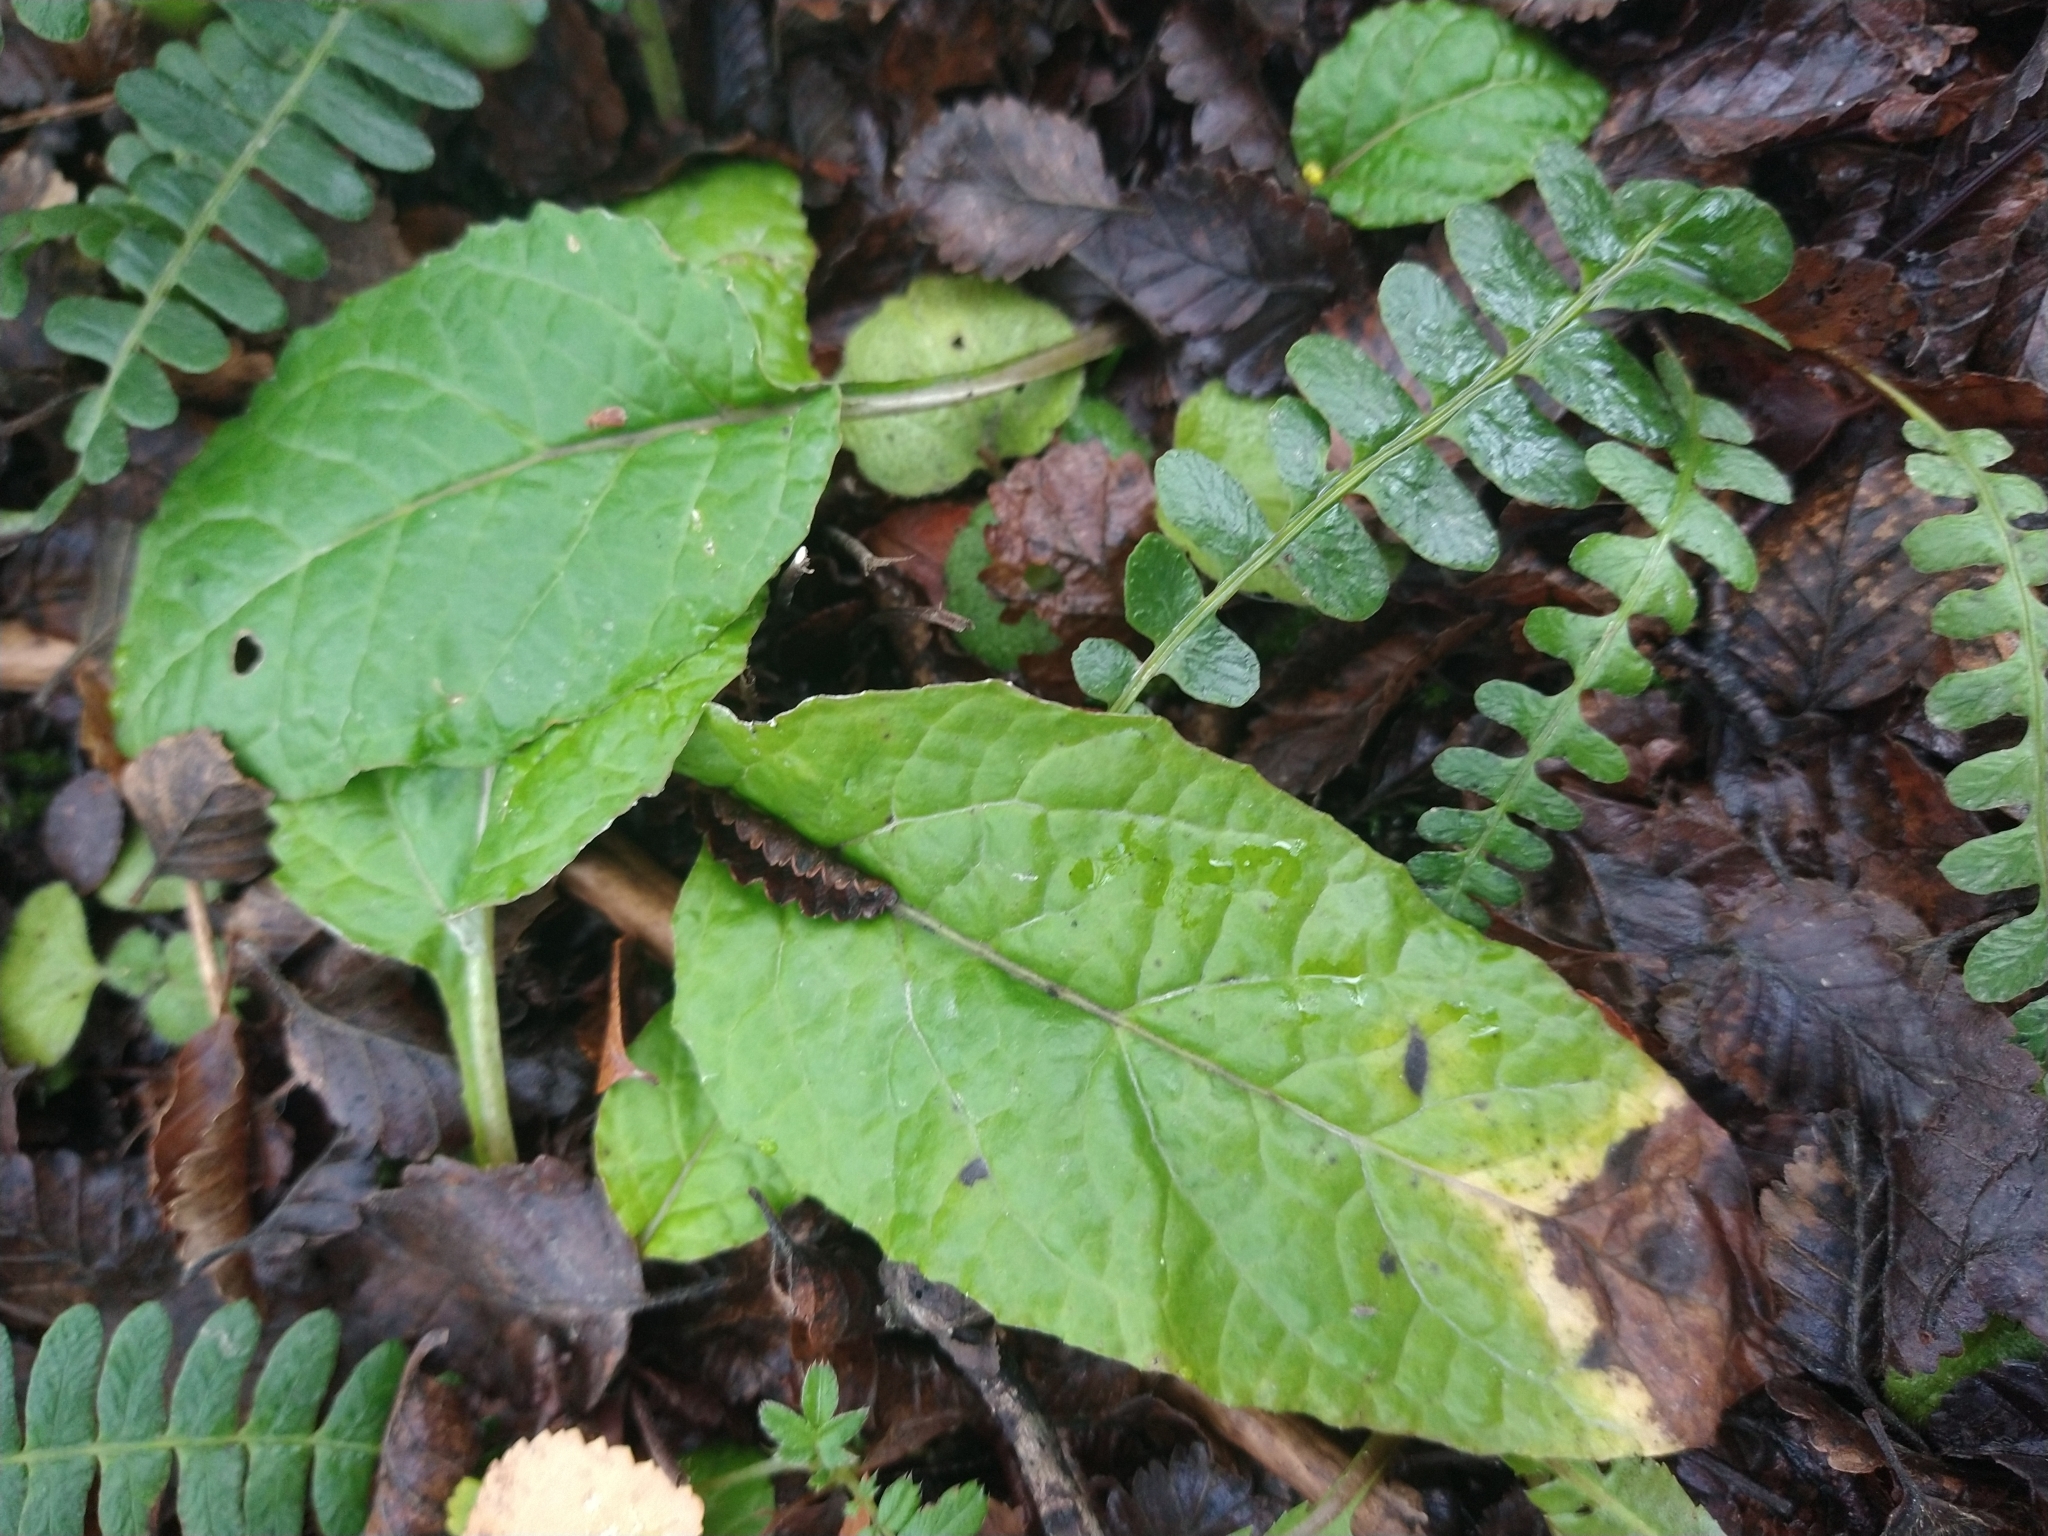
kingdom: Plantae
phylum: Tracheophyta
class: Magnoliopsida
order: Asterales
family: Asteraceae
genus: Adenocaulon
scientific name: Adenocaulon chilense
